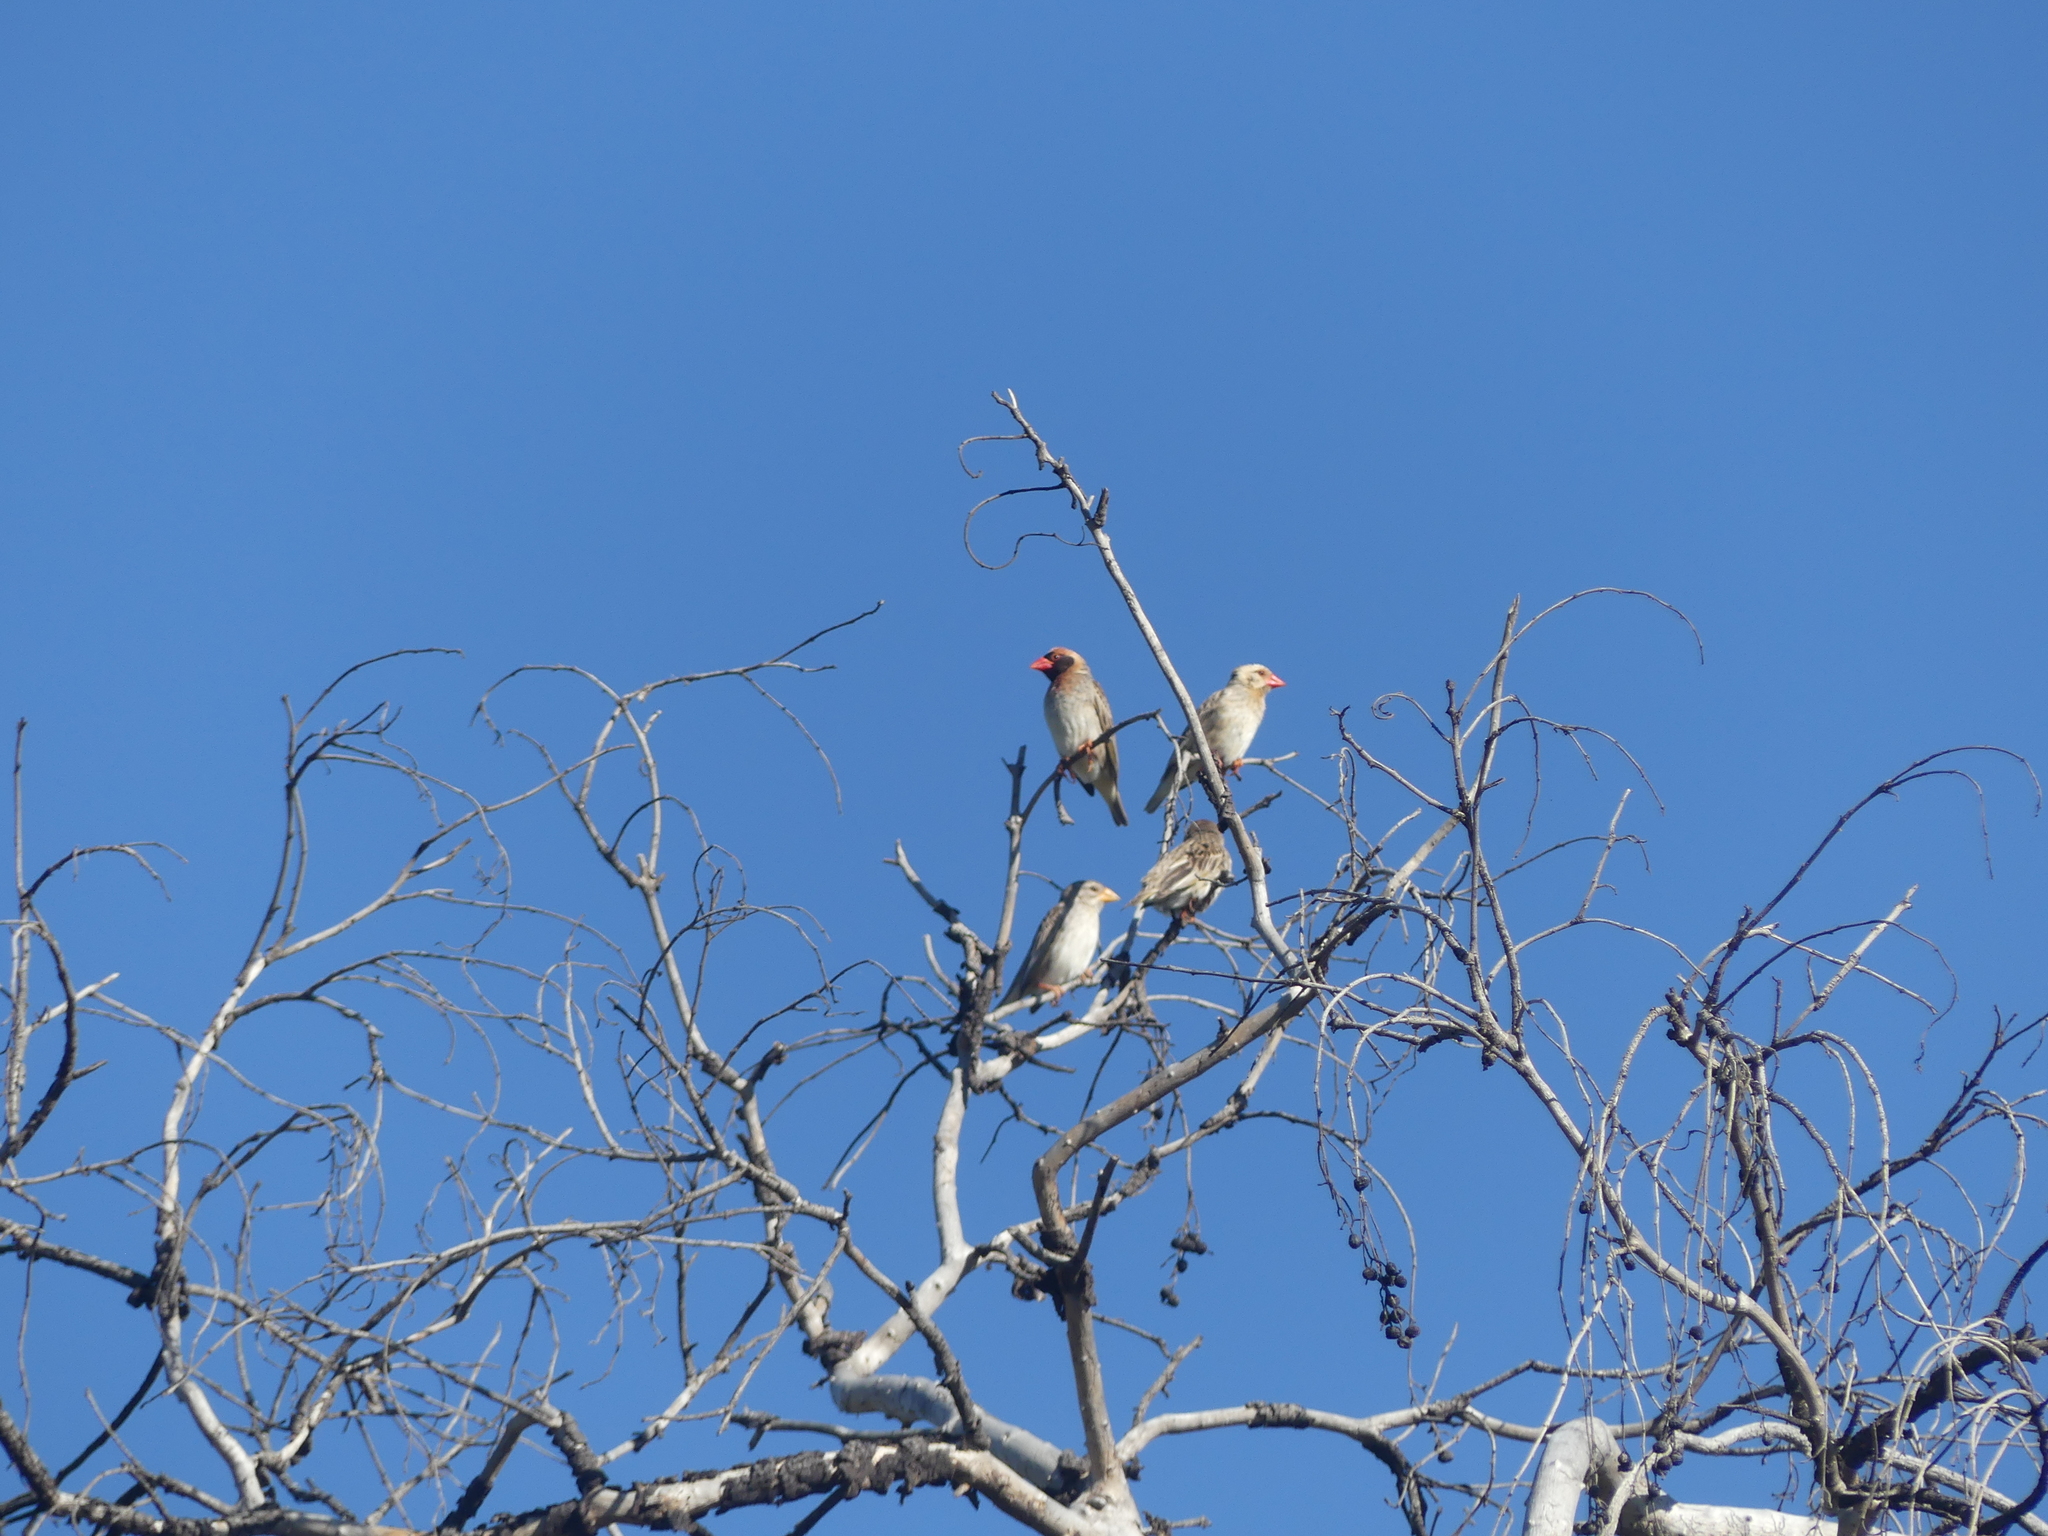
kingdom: Animalia
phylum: Chordata
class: Aves
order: Passeriformes
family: Ploceidae
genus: Quelea
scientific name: Quelea quelea
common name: Red-billed quelea
